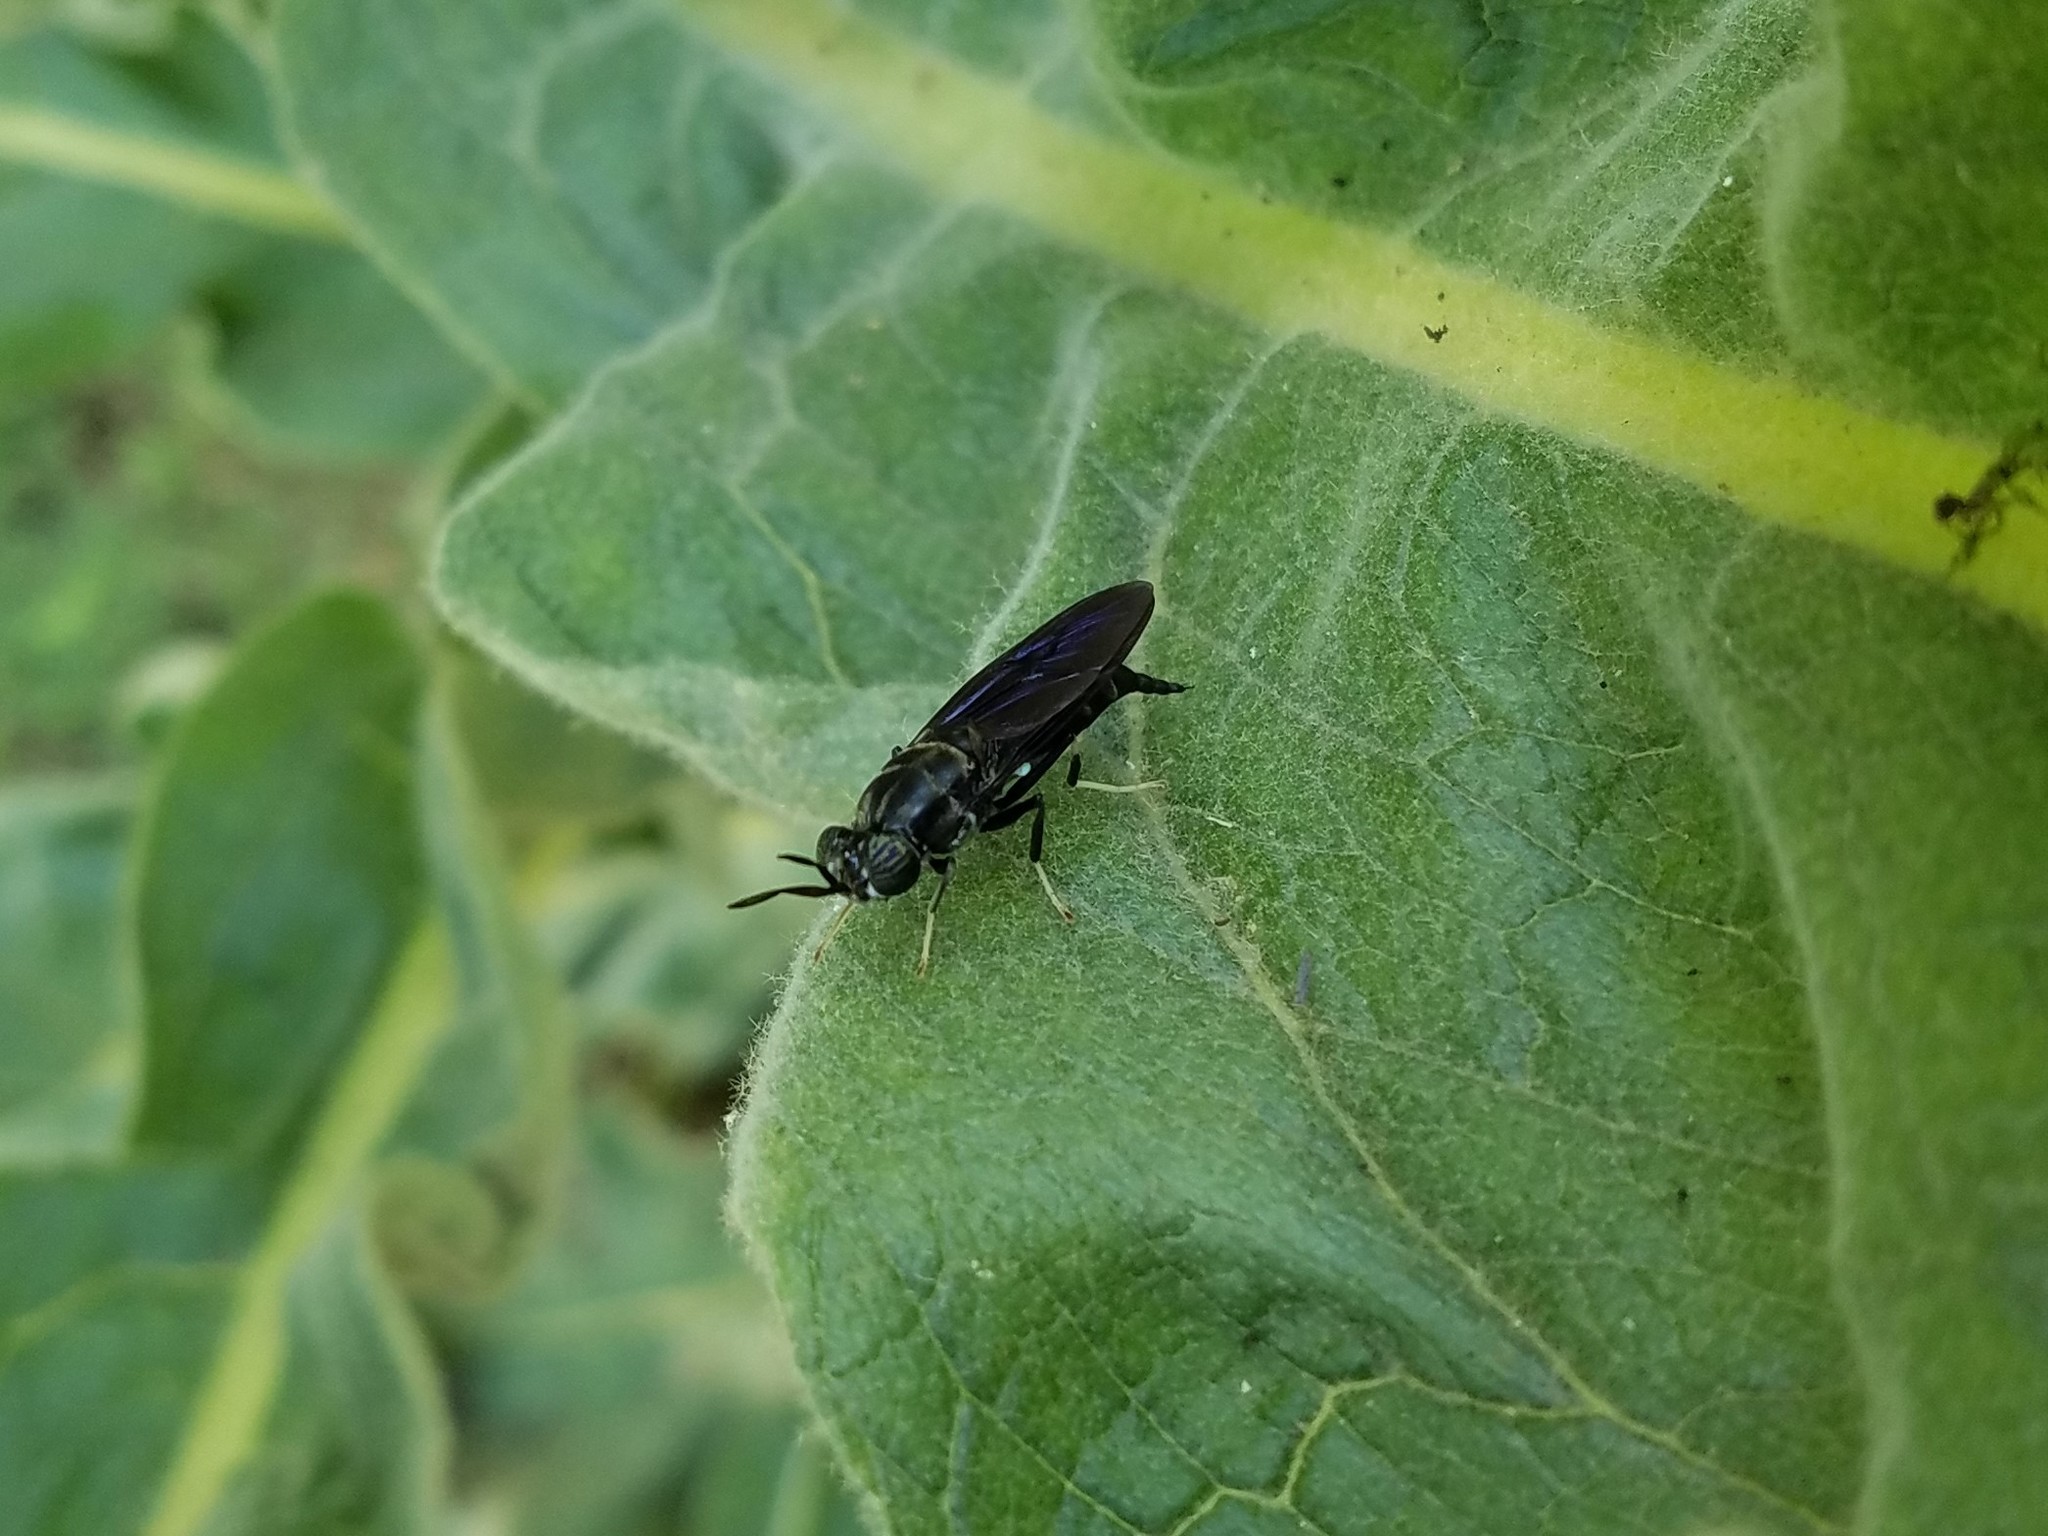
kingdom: Animalia
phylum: Arthropoda
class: Insecta
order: Diptera
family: Stratiomyidae
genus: Hermetia
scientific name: Hermetia illucens
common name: Black soldier fly
